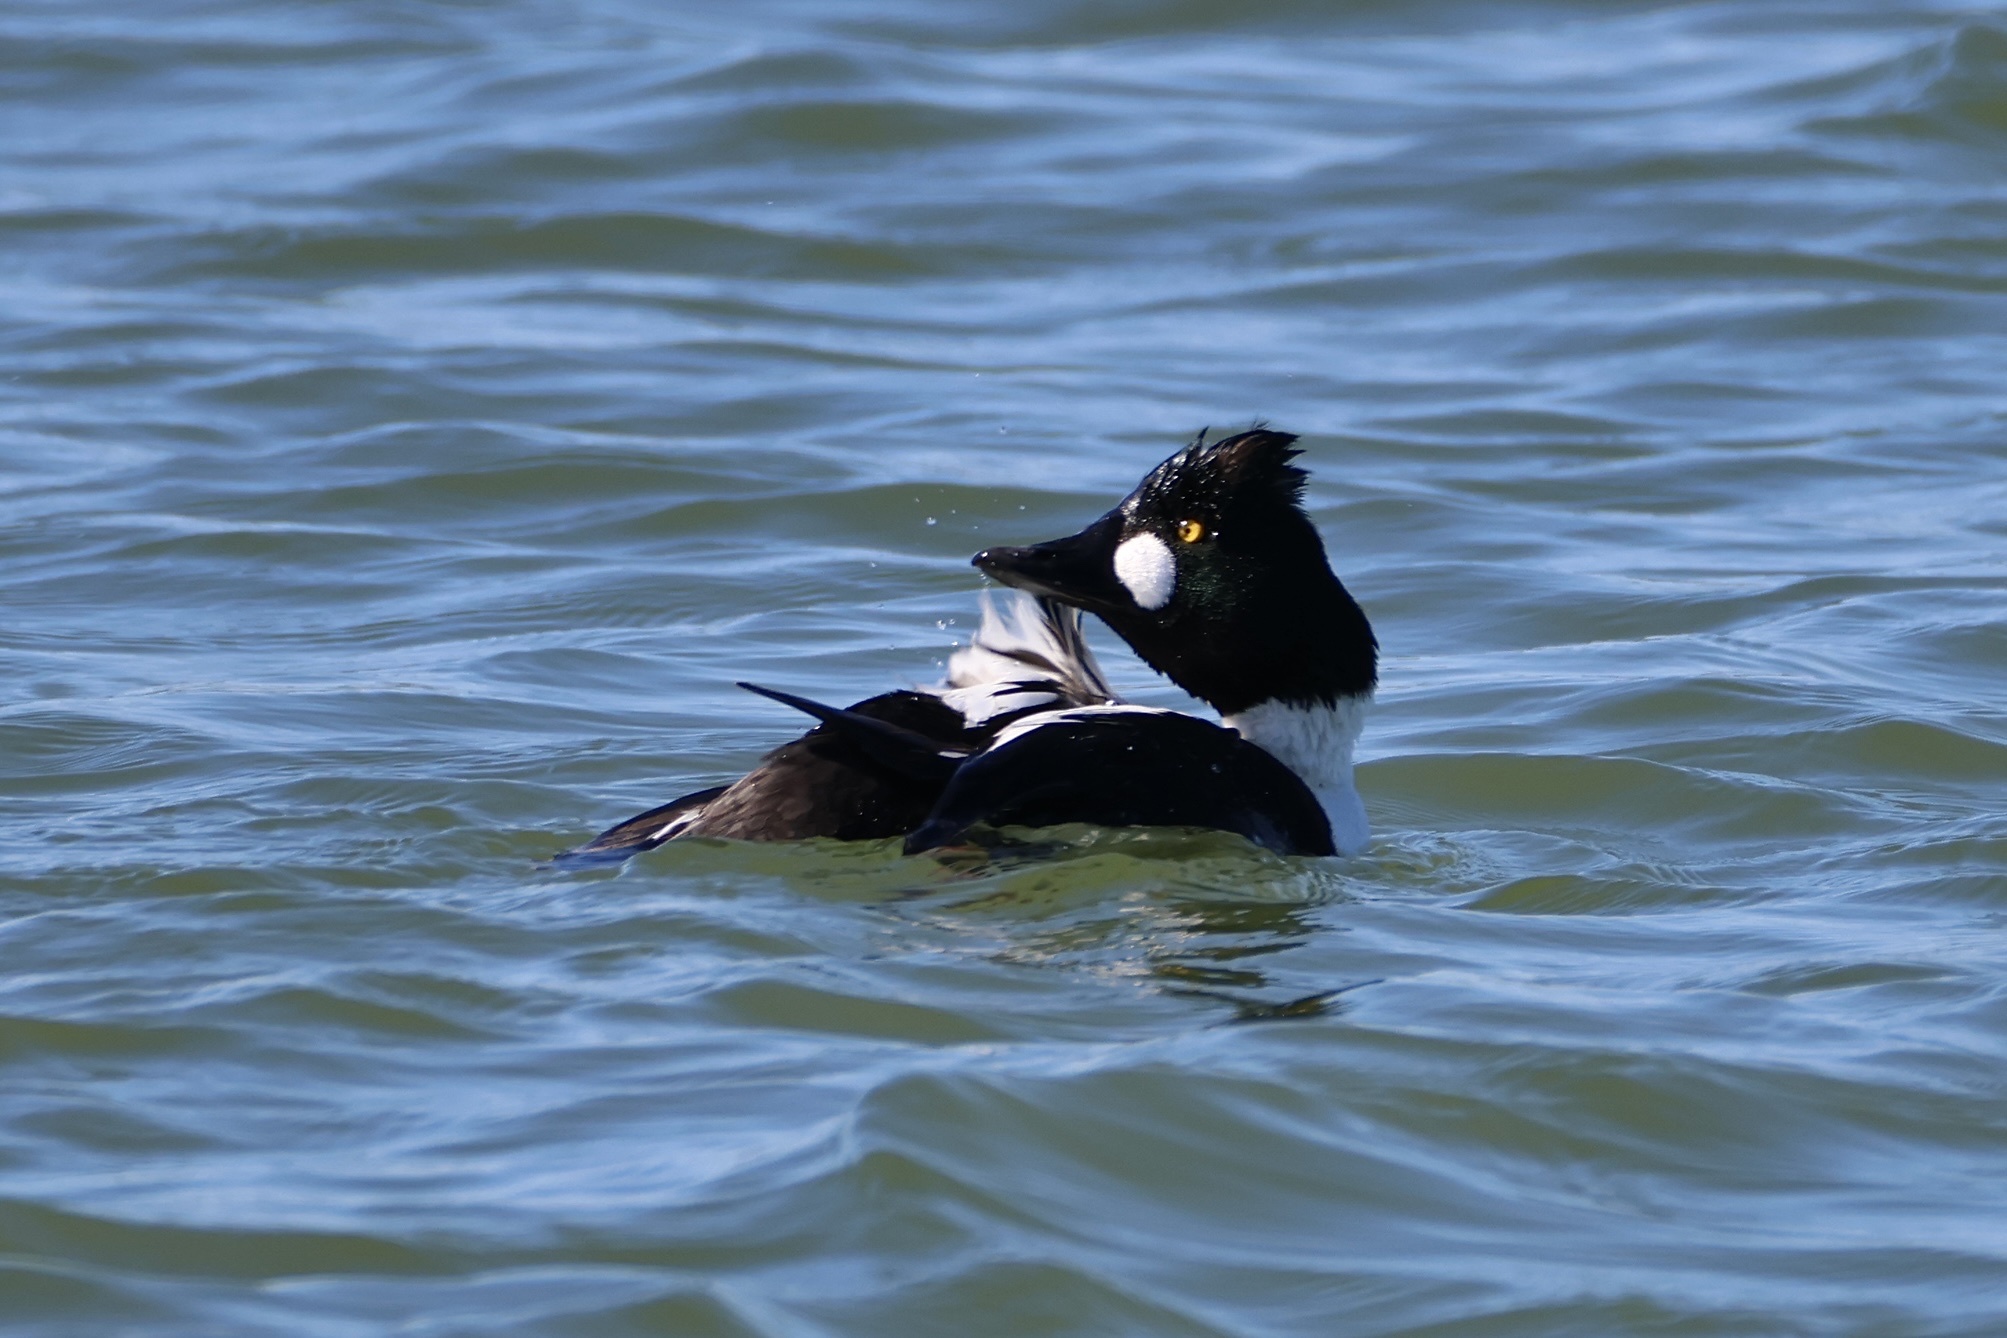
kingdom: Animalia
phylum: Chordata
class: Aves
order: Anseriformes
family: Anatidae
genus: Bucephala
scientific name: Bucephala clangula
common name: Common goldeneye
